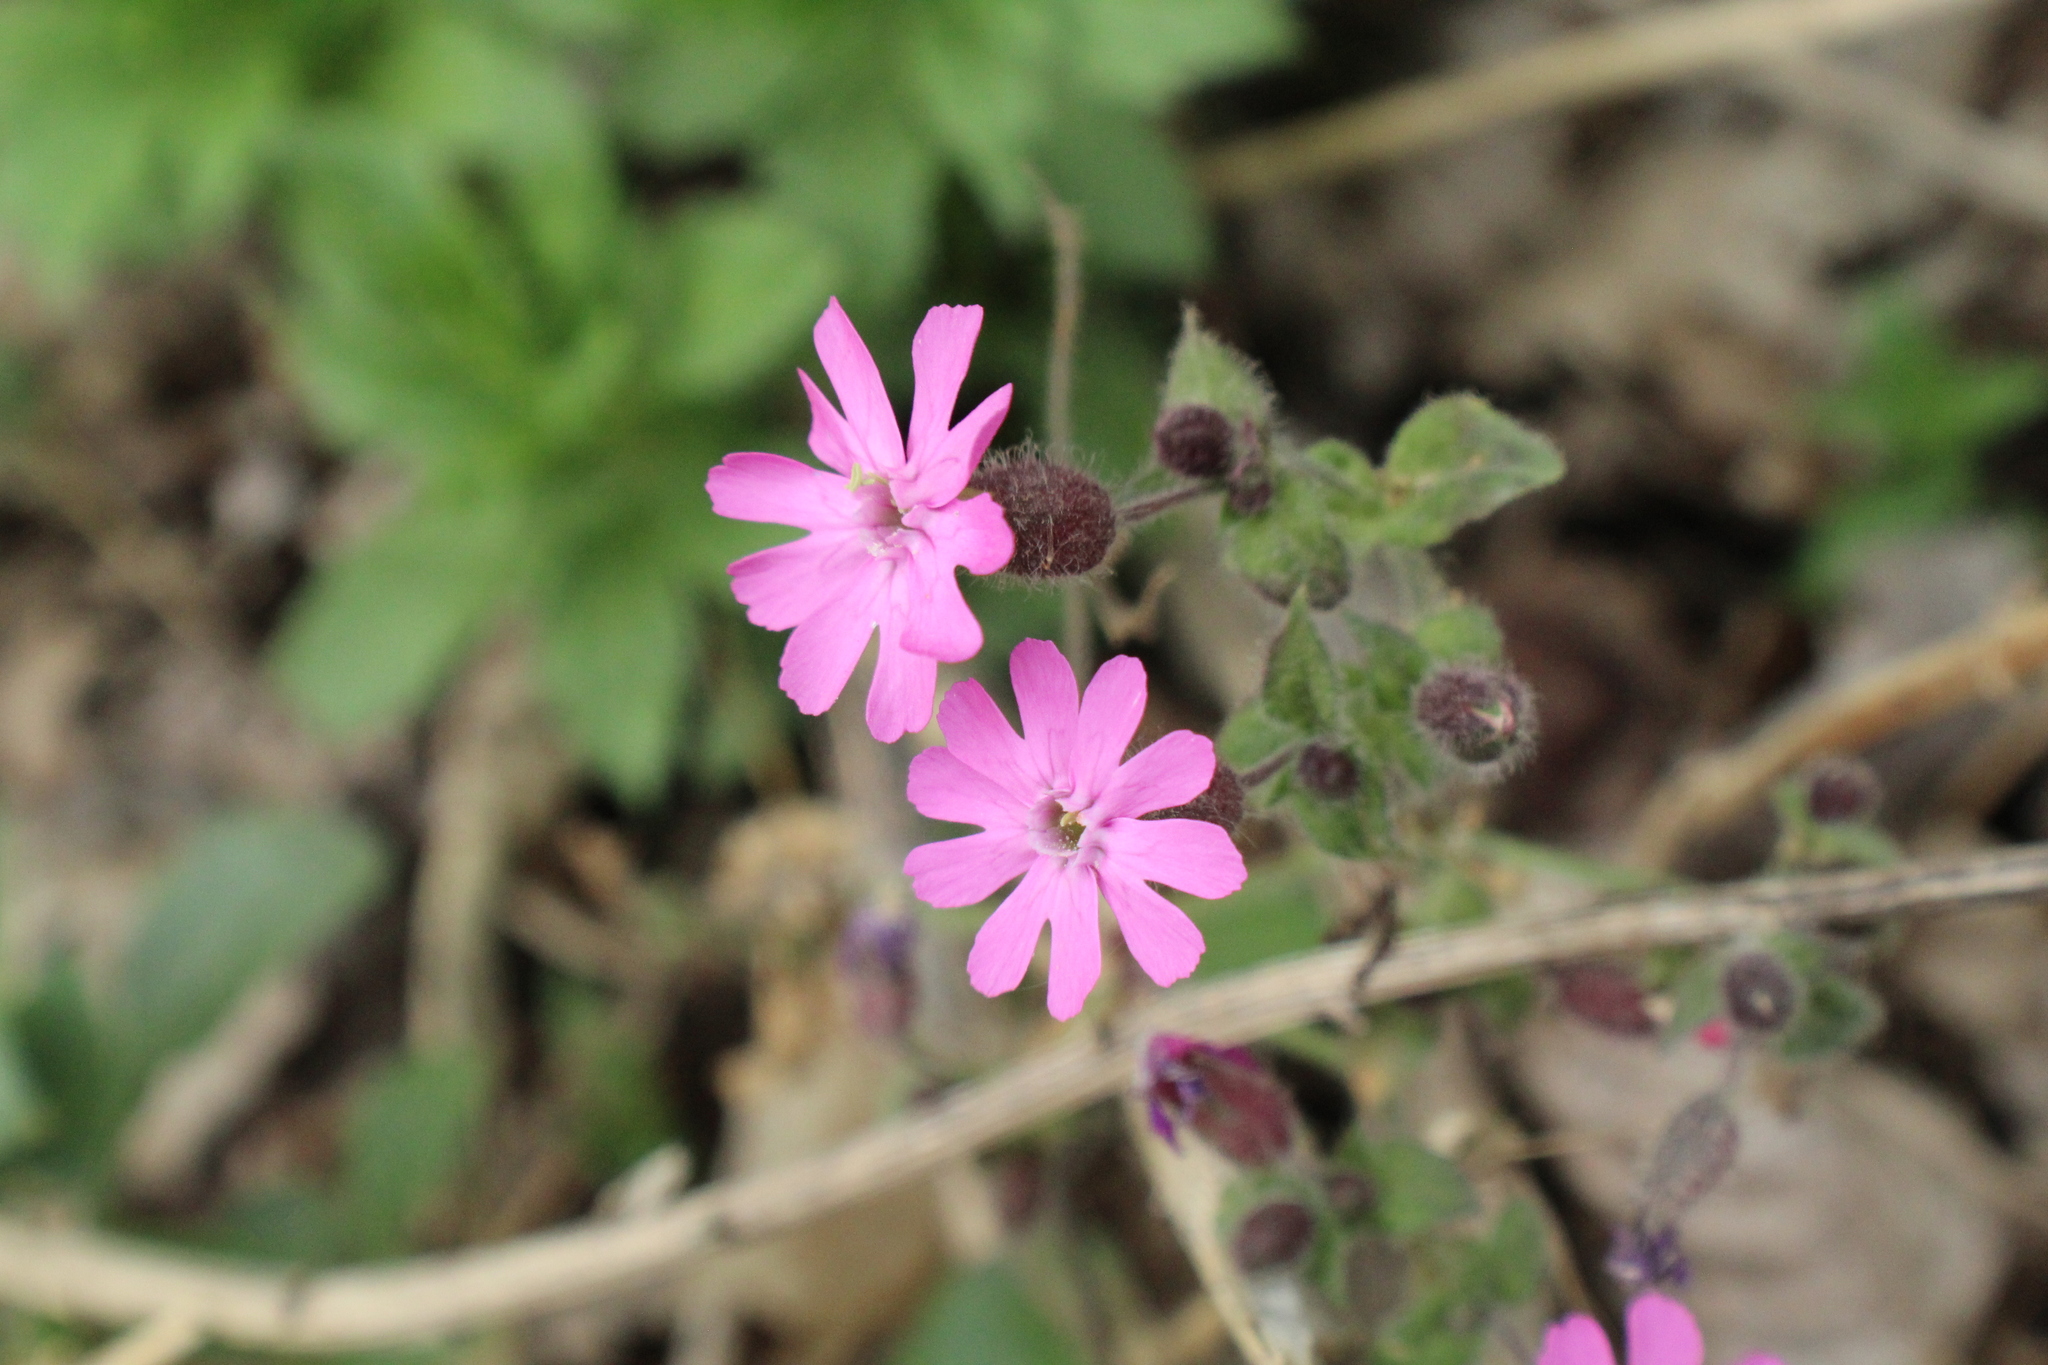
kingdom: Plantae
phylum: Tracheophyta
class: Magnoliopsida
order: Caryophyllales
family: Caryophyllaceae
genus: Silene
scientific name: Silene dioica
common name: Red campion
